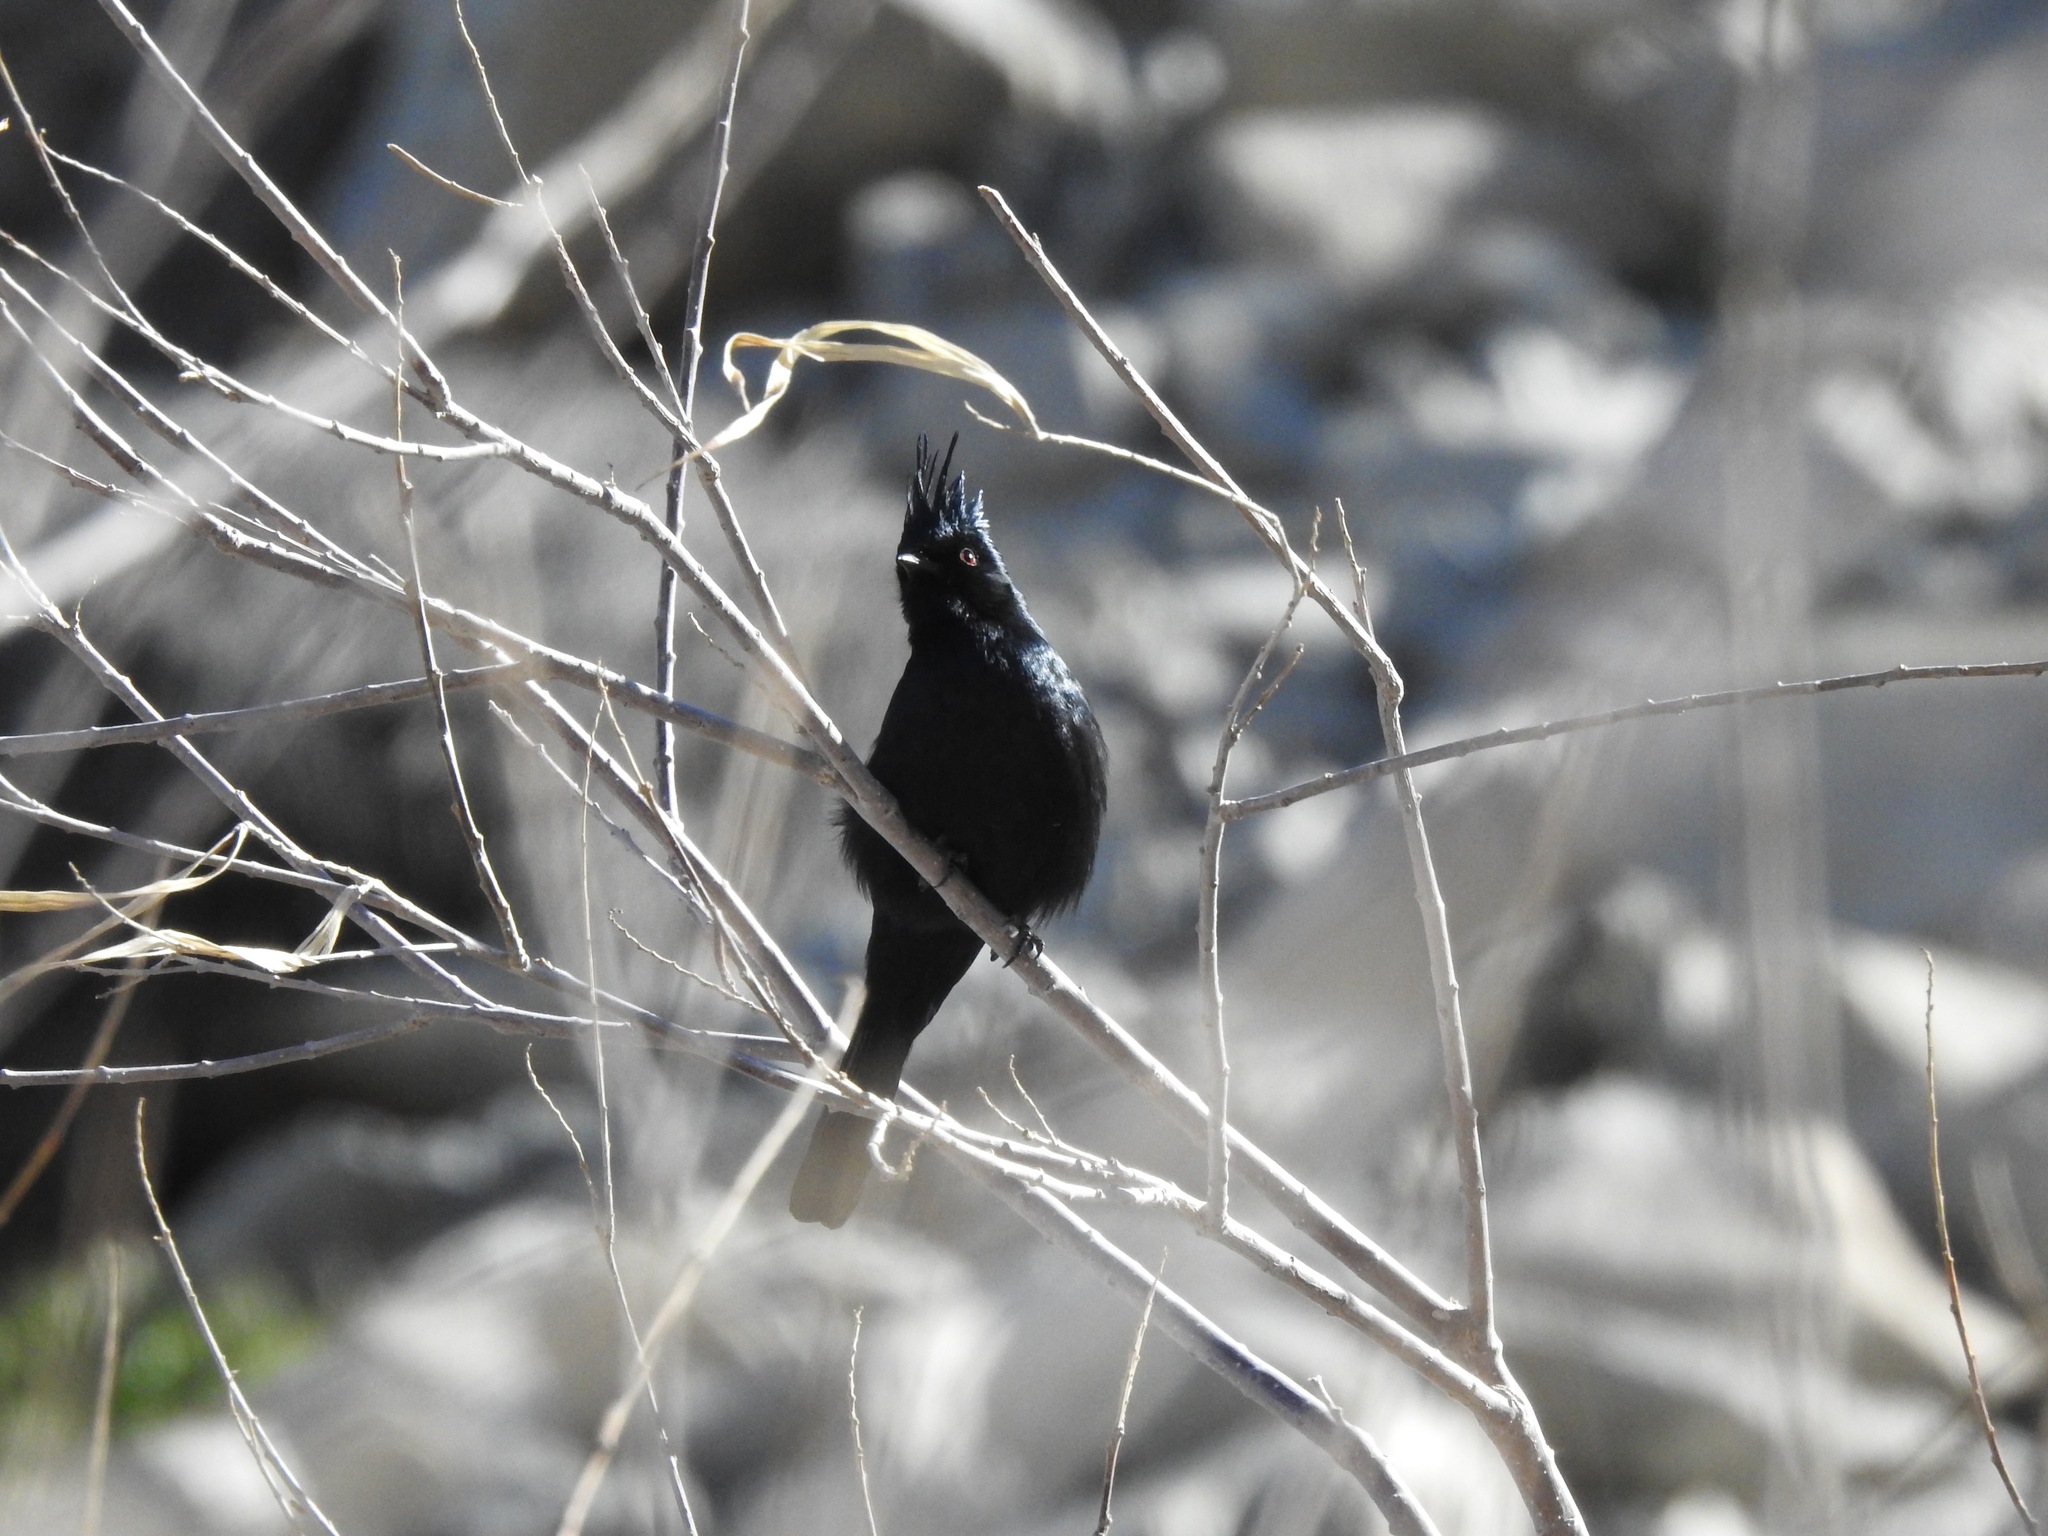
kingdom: Animalia
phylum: Chordata
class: Aves
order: Passeriformes
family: Ptilogonatidae
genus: Phainopepla
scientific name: Phainopepla nitens
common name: Phainopepla
